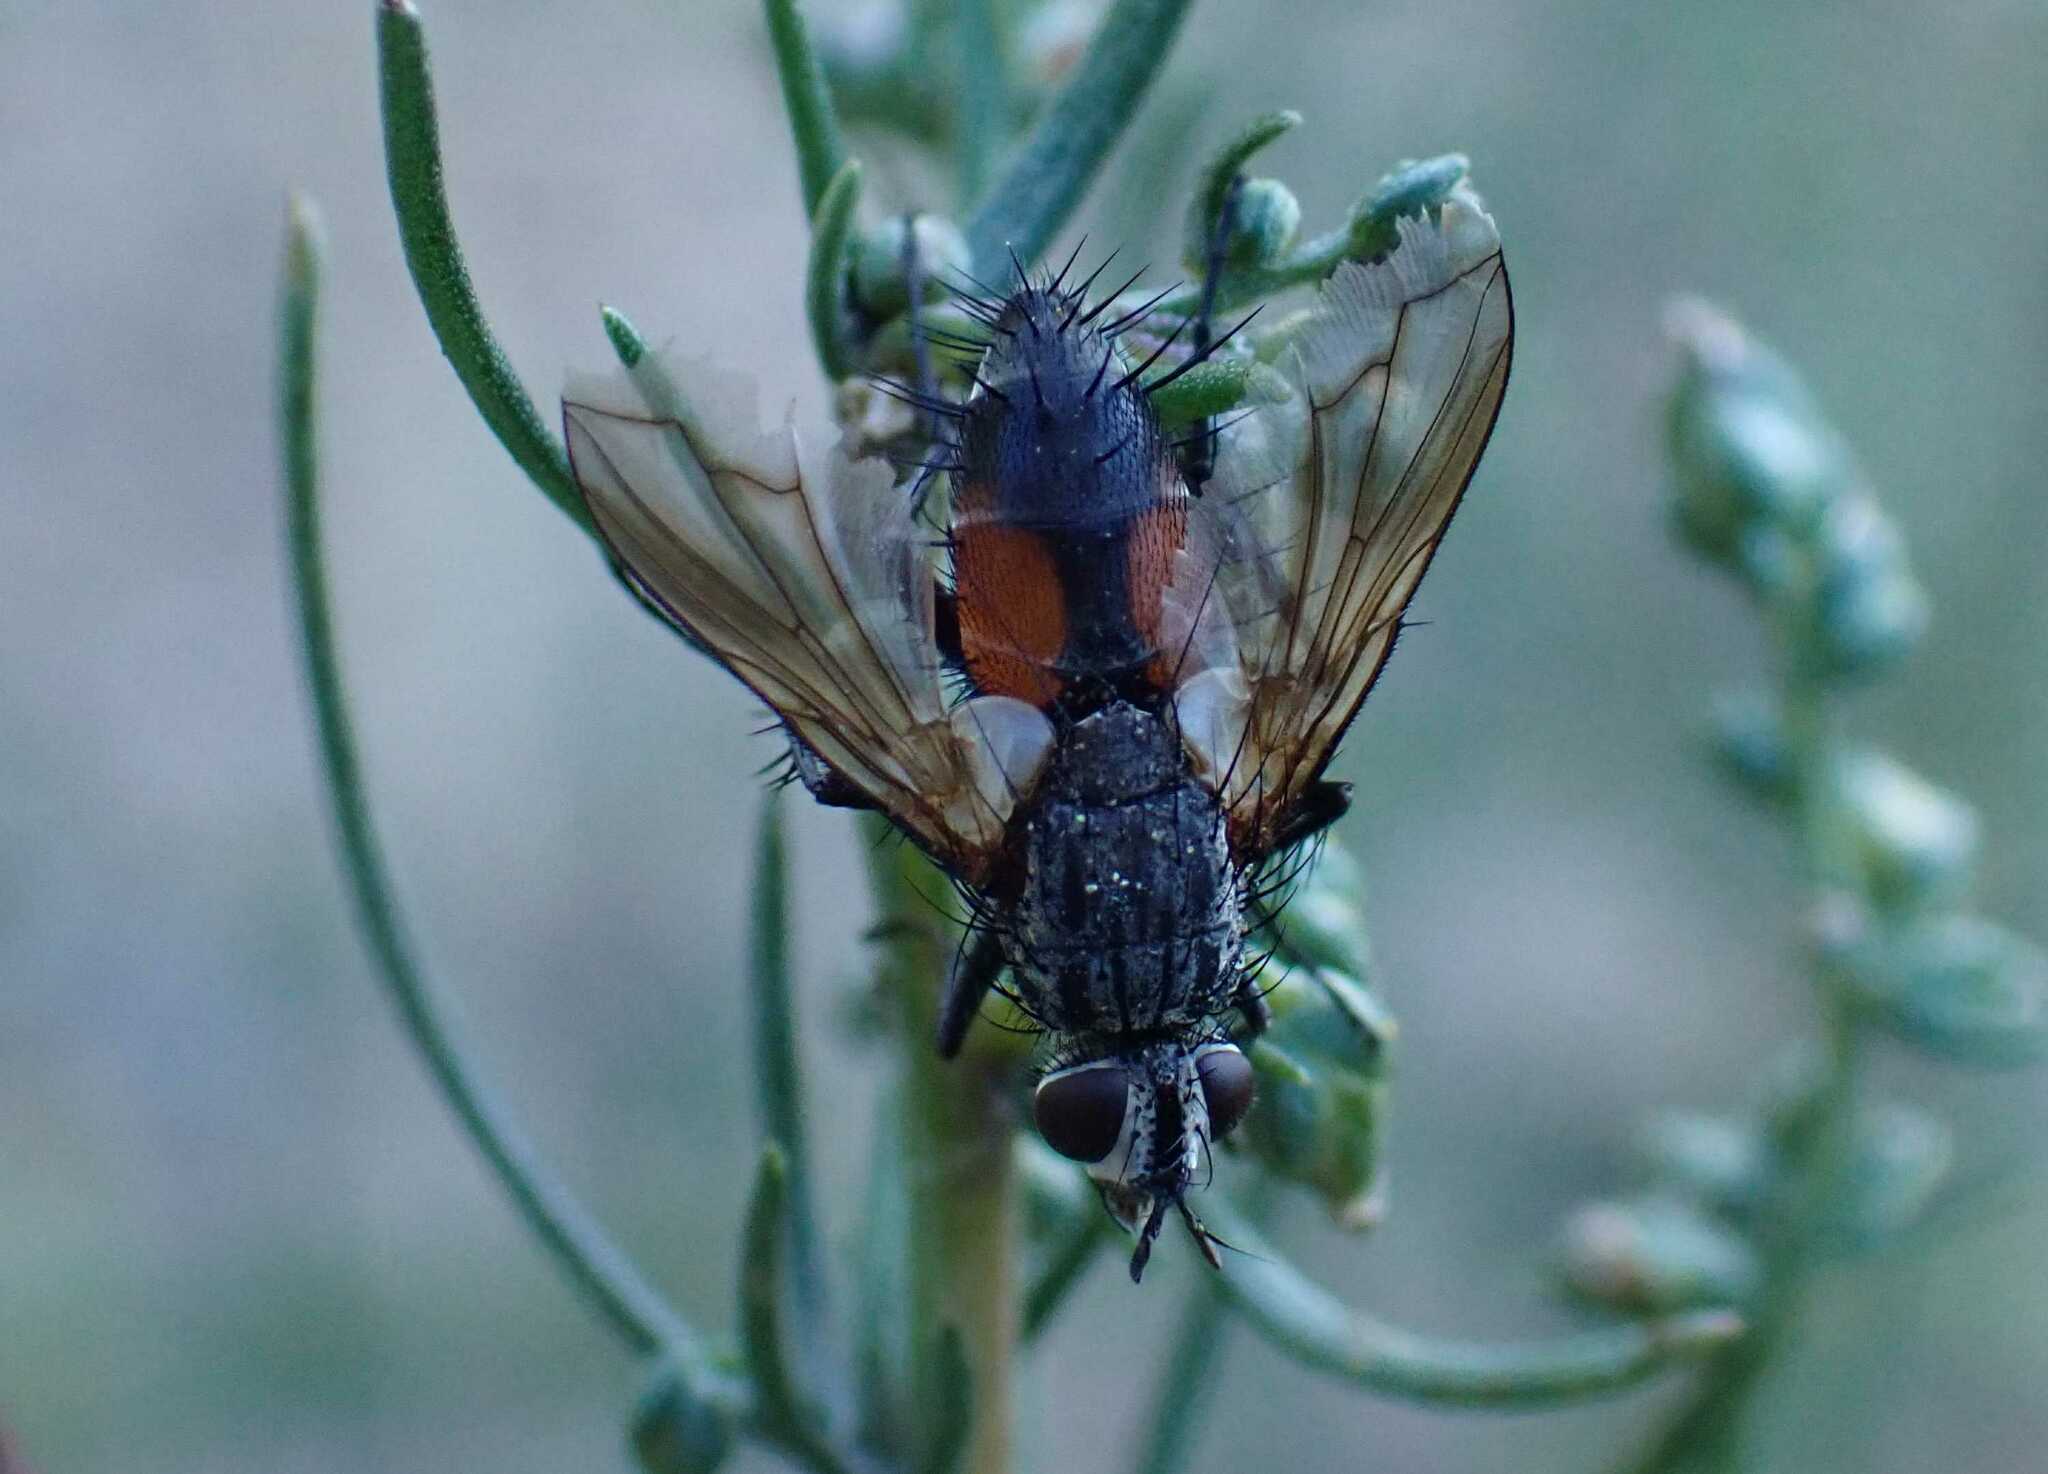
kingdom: Animalia
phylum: Arthropoda
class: Insecta
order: Diptera
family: Tachinidae
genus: Eriothrix
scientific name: Eriothrix rufomaculatus
